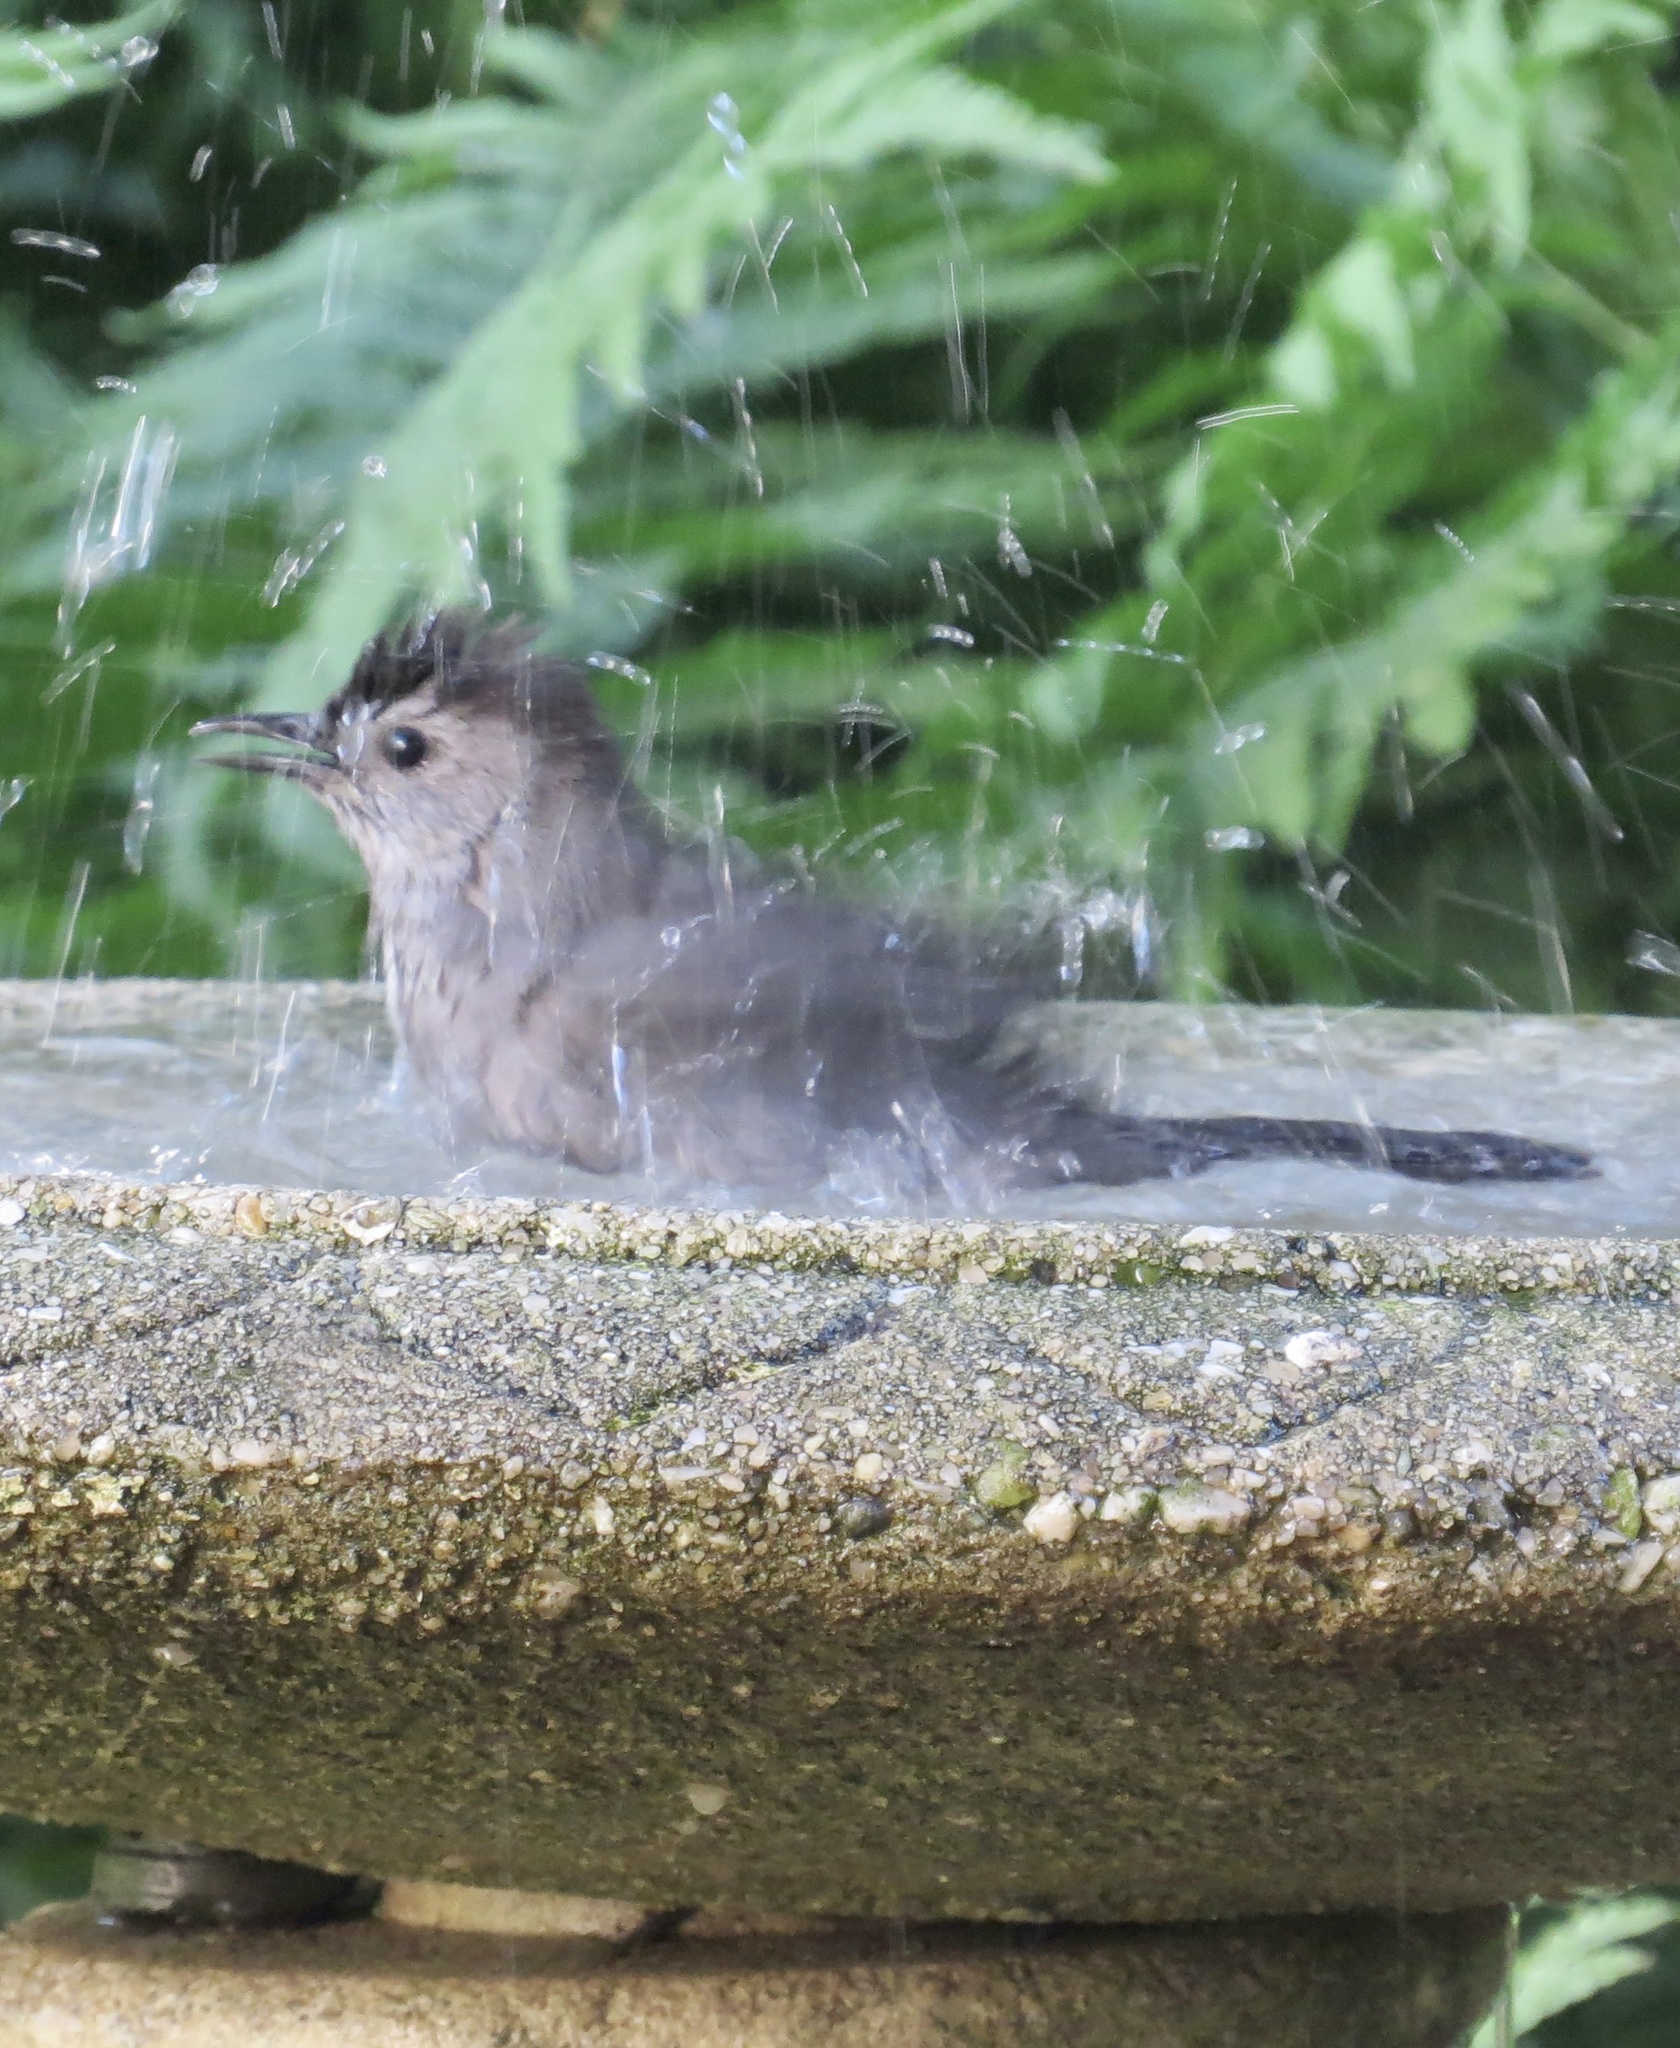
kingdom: Animalia
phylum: Chordata
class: Aves
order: Passeriformes
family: Mimidae
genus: Dumetella
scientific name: Dumetella carolinensis
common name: Gray catbird
